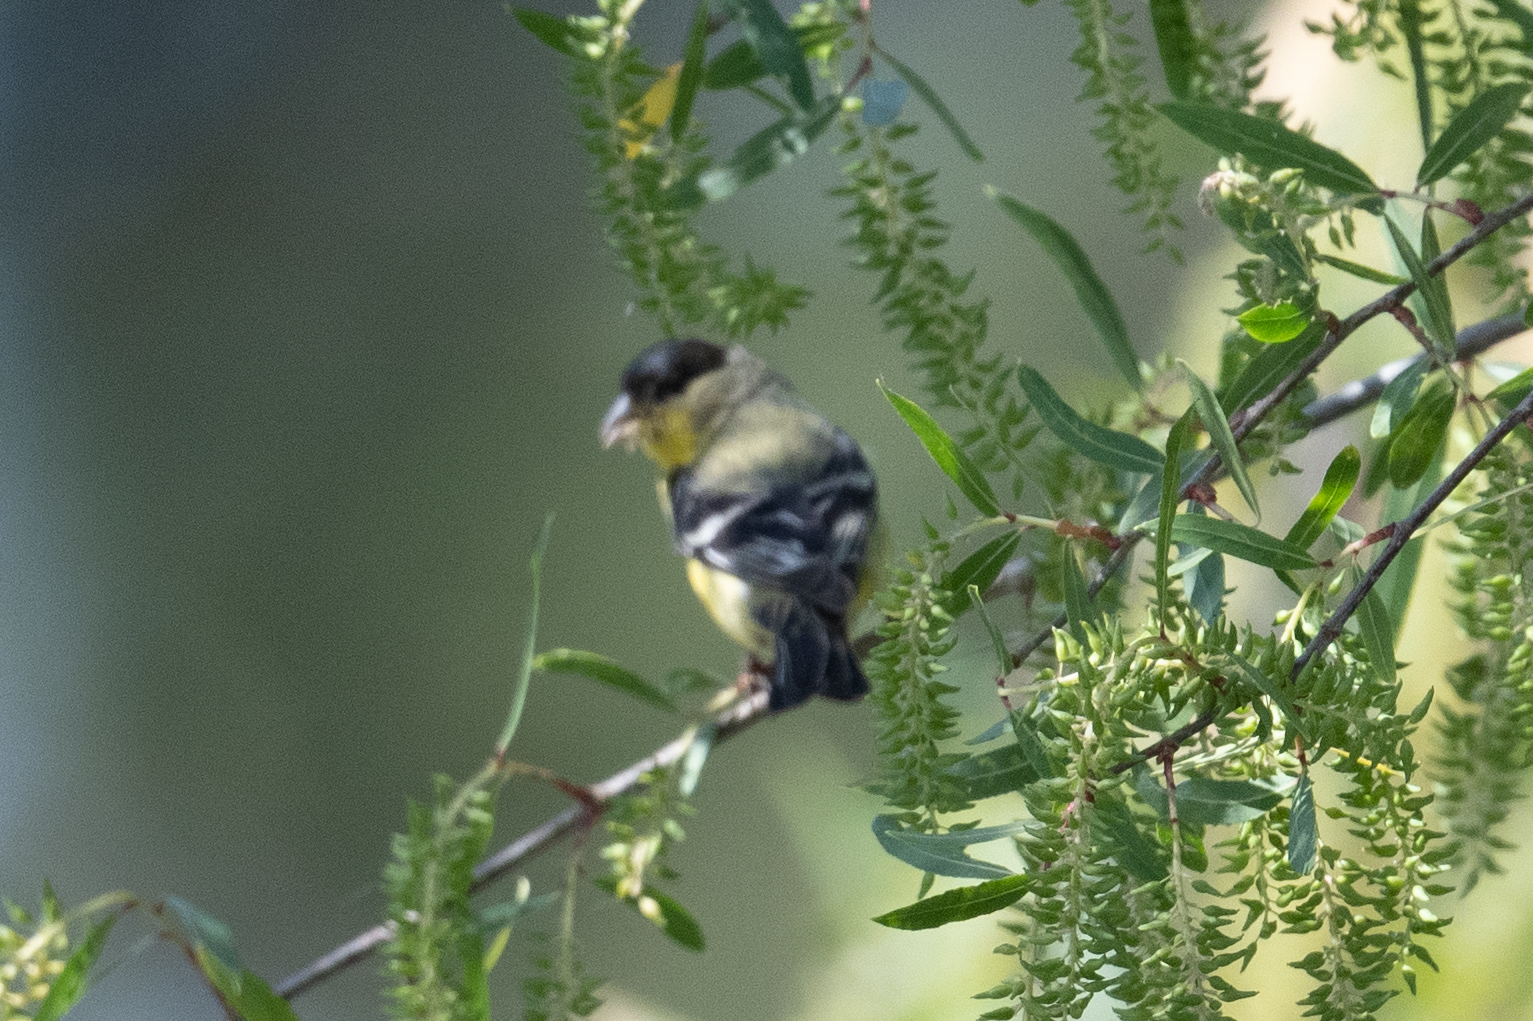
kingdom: Animalia
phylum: Chordata
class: Aves
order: Passeriformes
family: Fringillidae
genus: Spinus
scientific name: Spinus psaltria
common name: Lesser goldfinch
